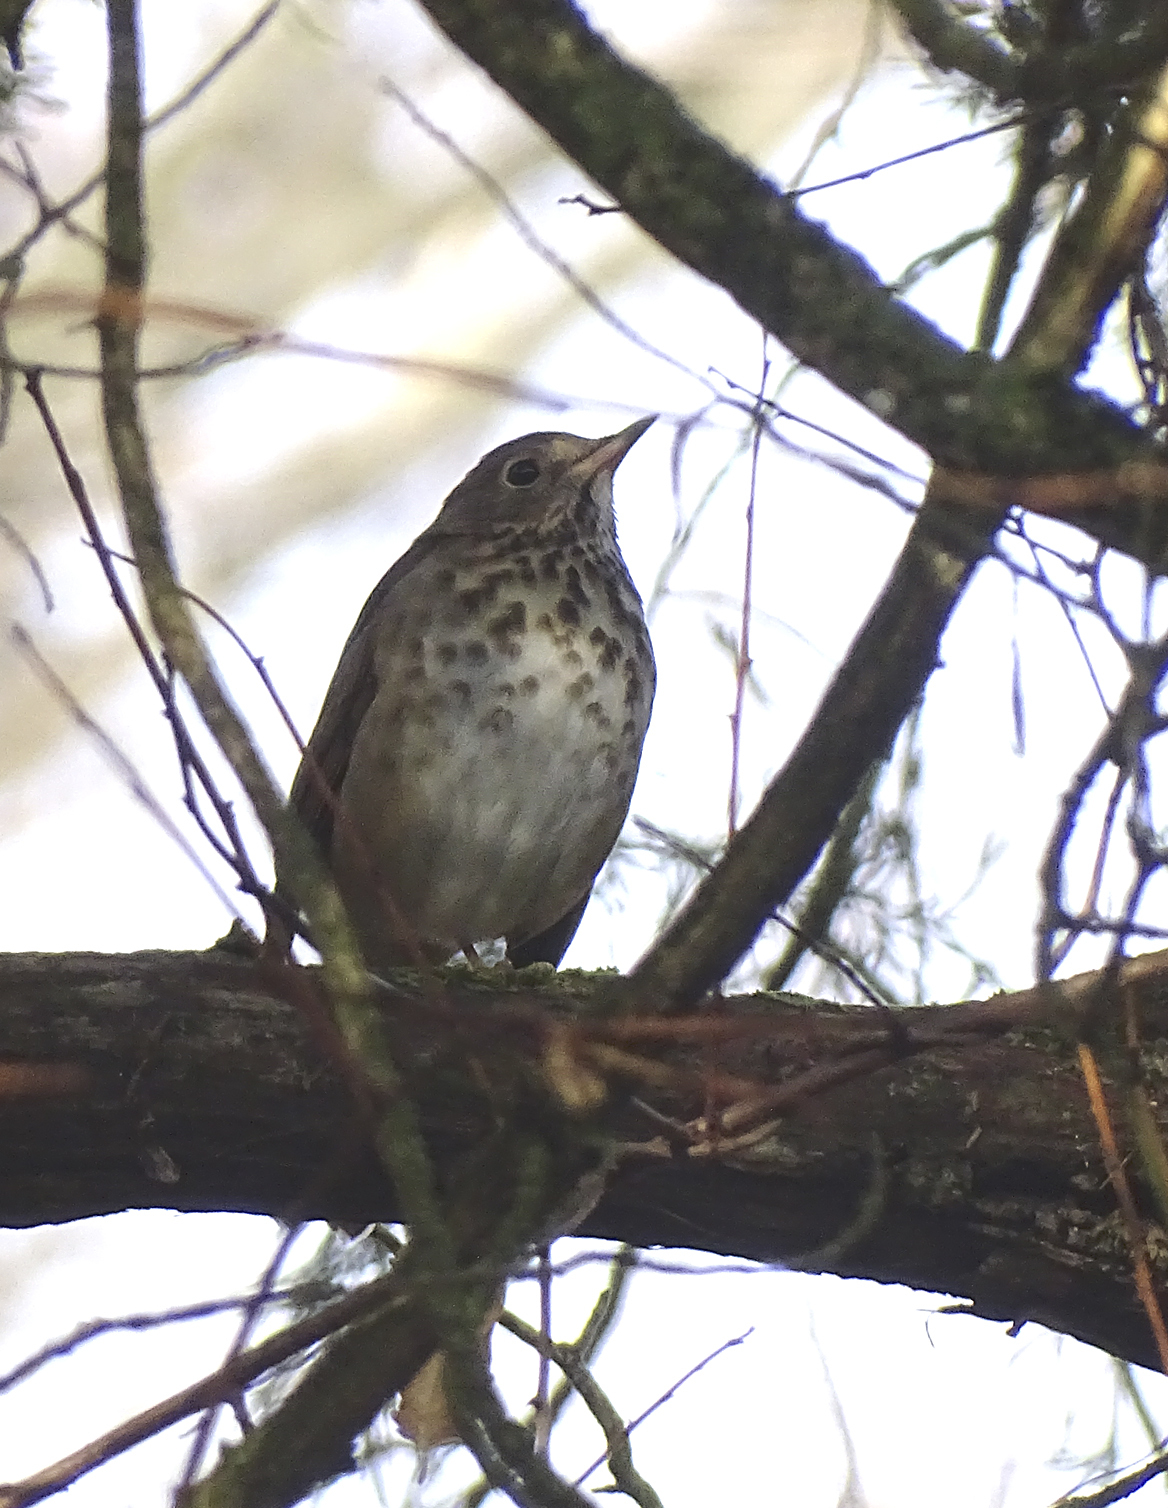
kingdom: Animalia
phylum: Chordata
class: Aves
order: Passeriformes
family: Turdidae
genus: Catharus
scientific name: Catharus guttatus
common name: Hermit thrush
